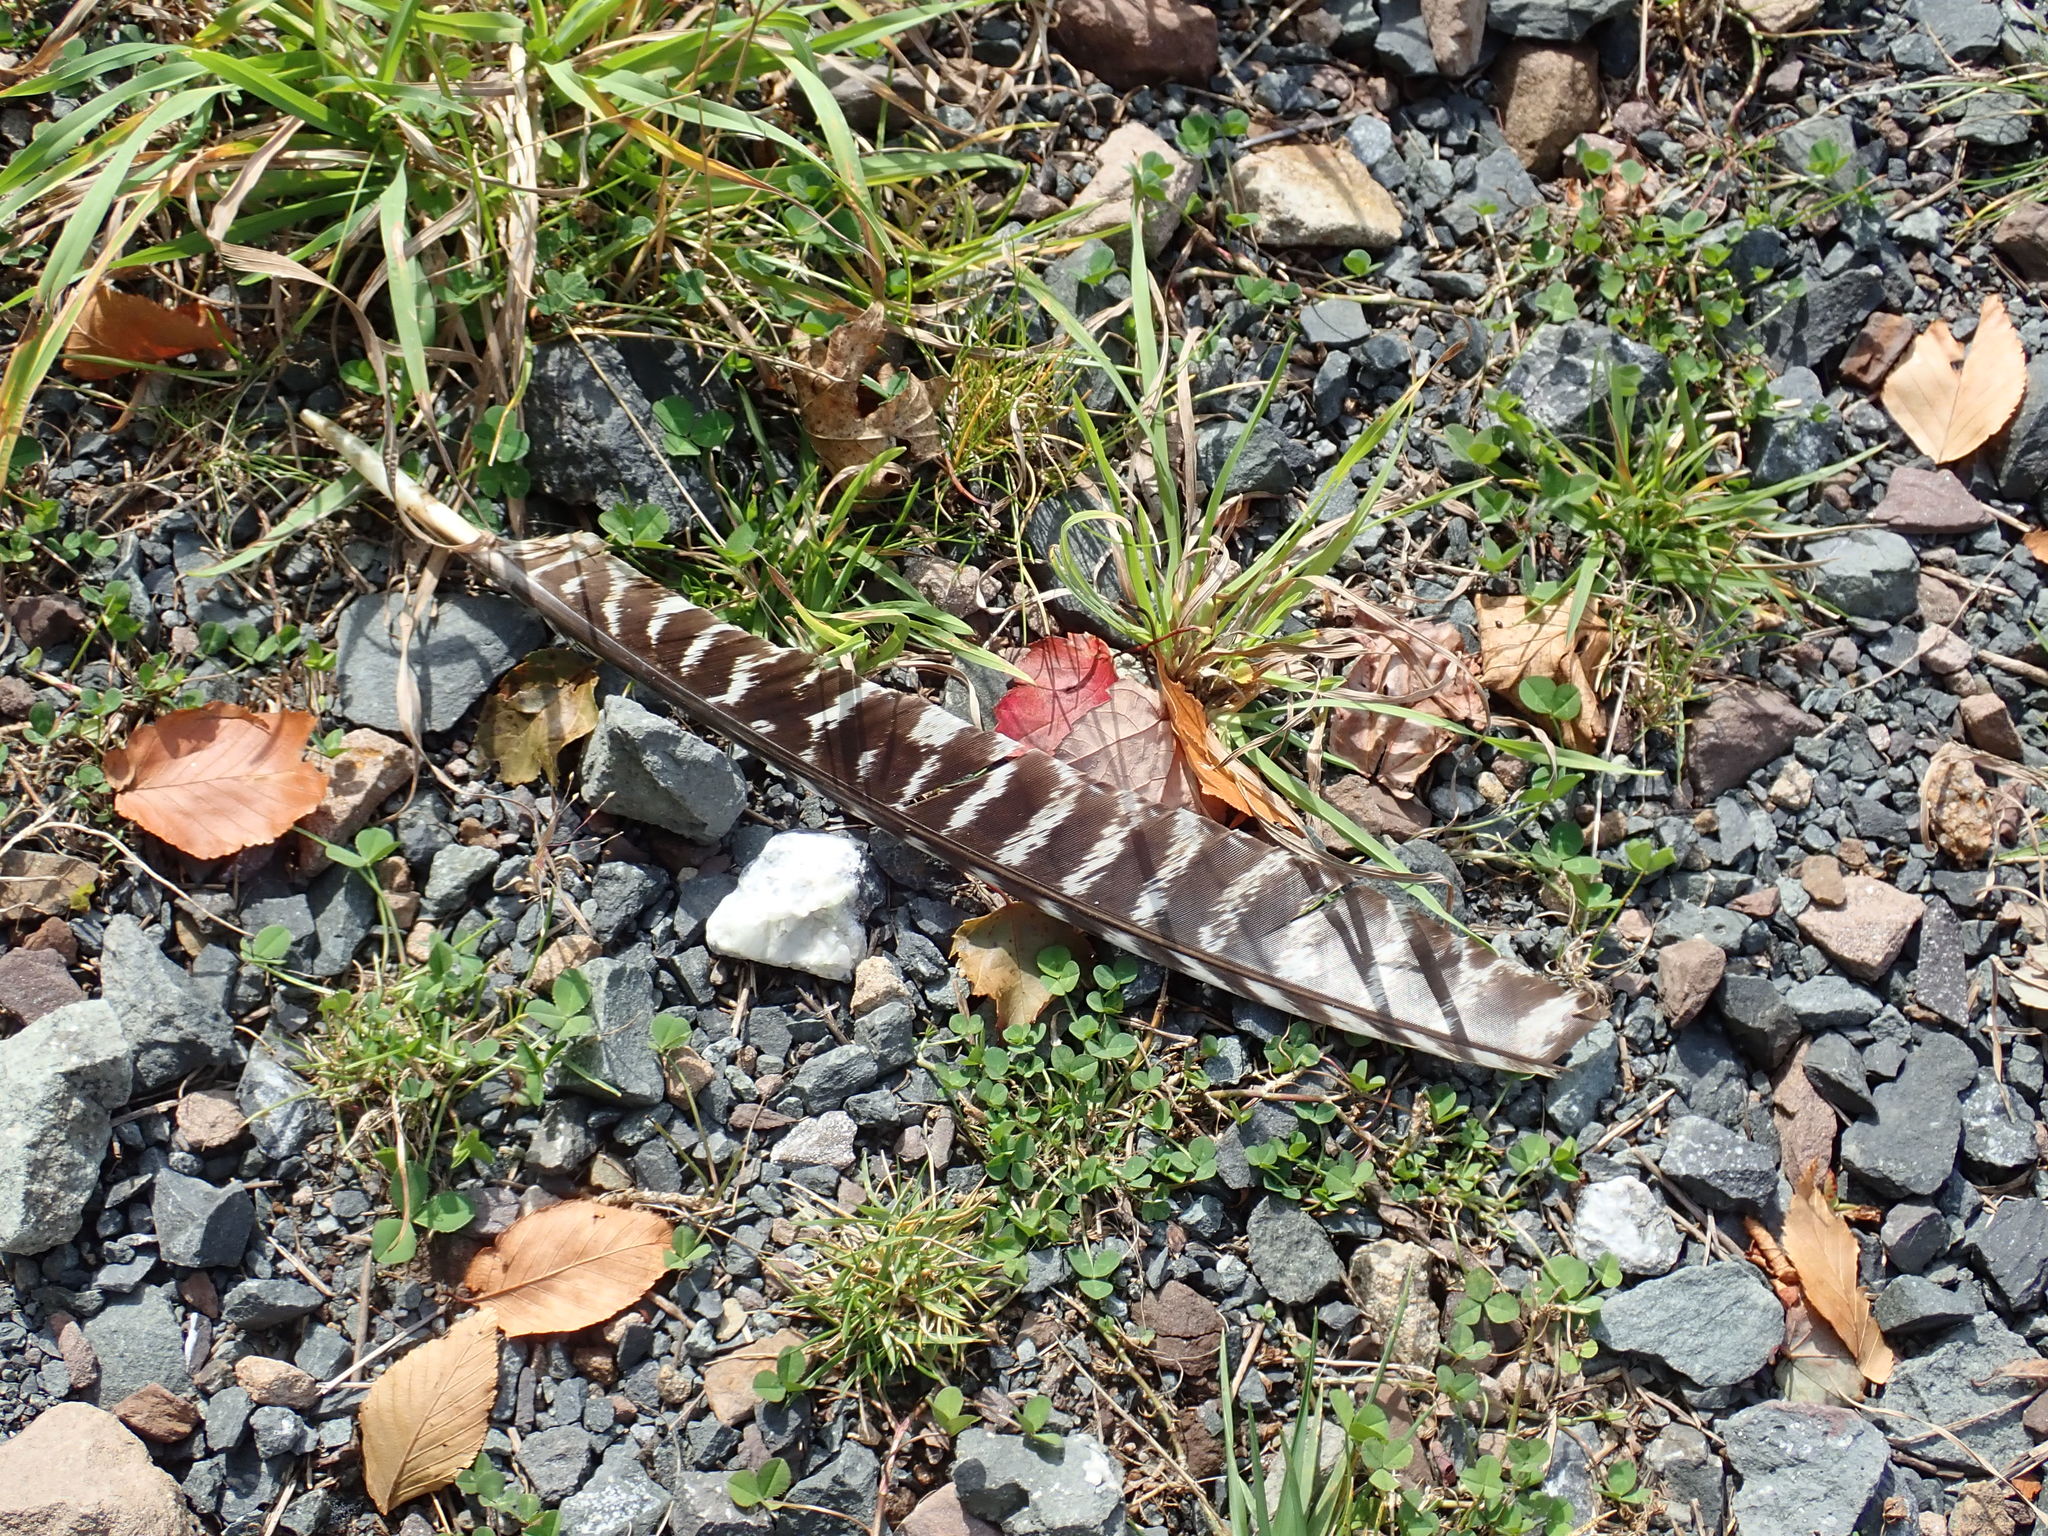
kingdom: Animalia
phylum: Chordata
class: Aves
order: Galliformes
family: Phasianidae
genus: Meleagris
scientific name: Meleagris gallopavo
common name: Wild turkey
